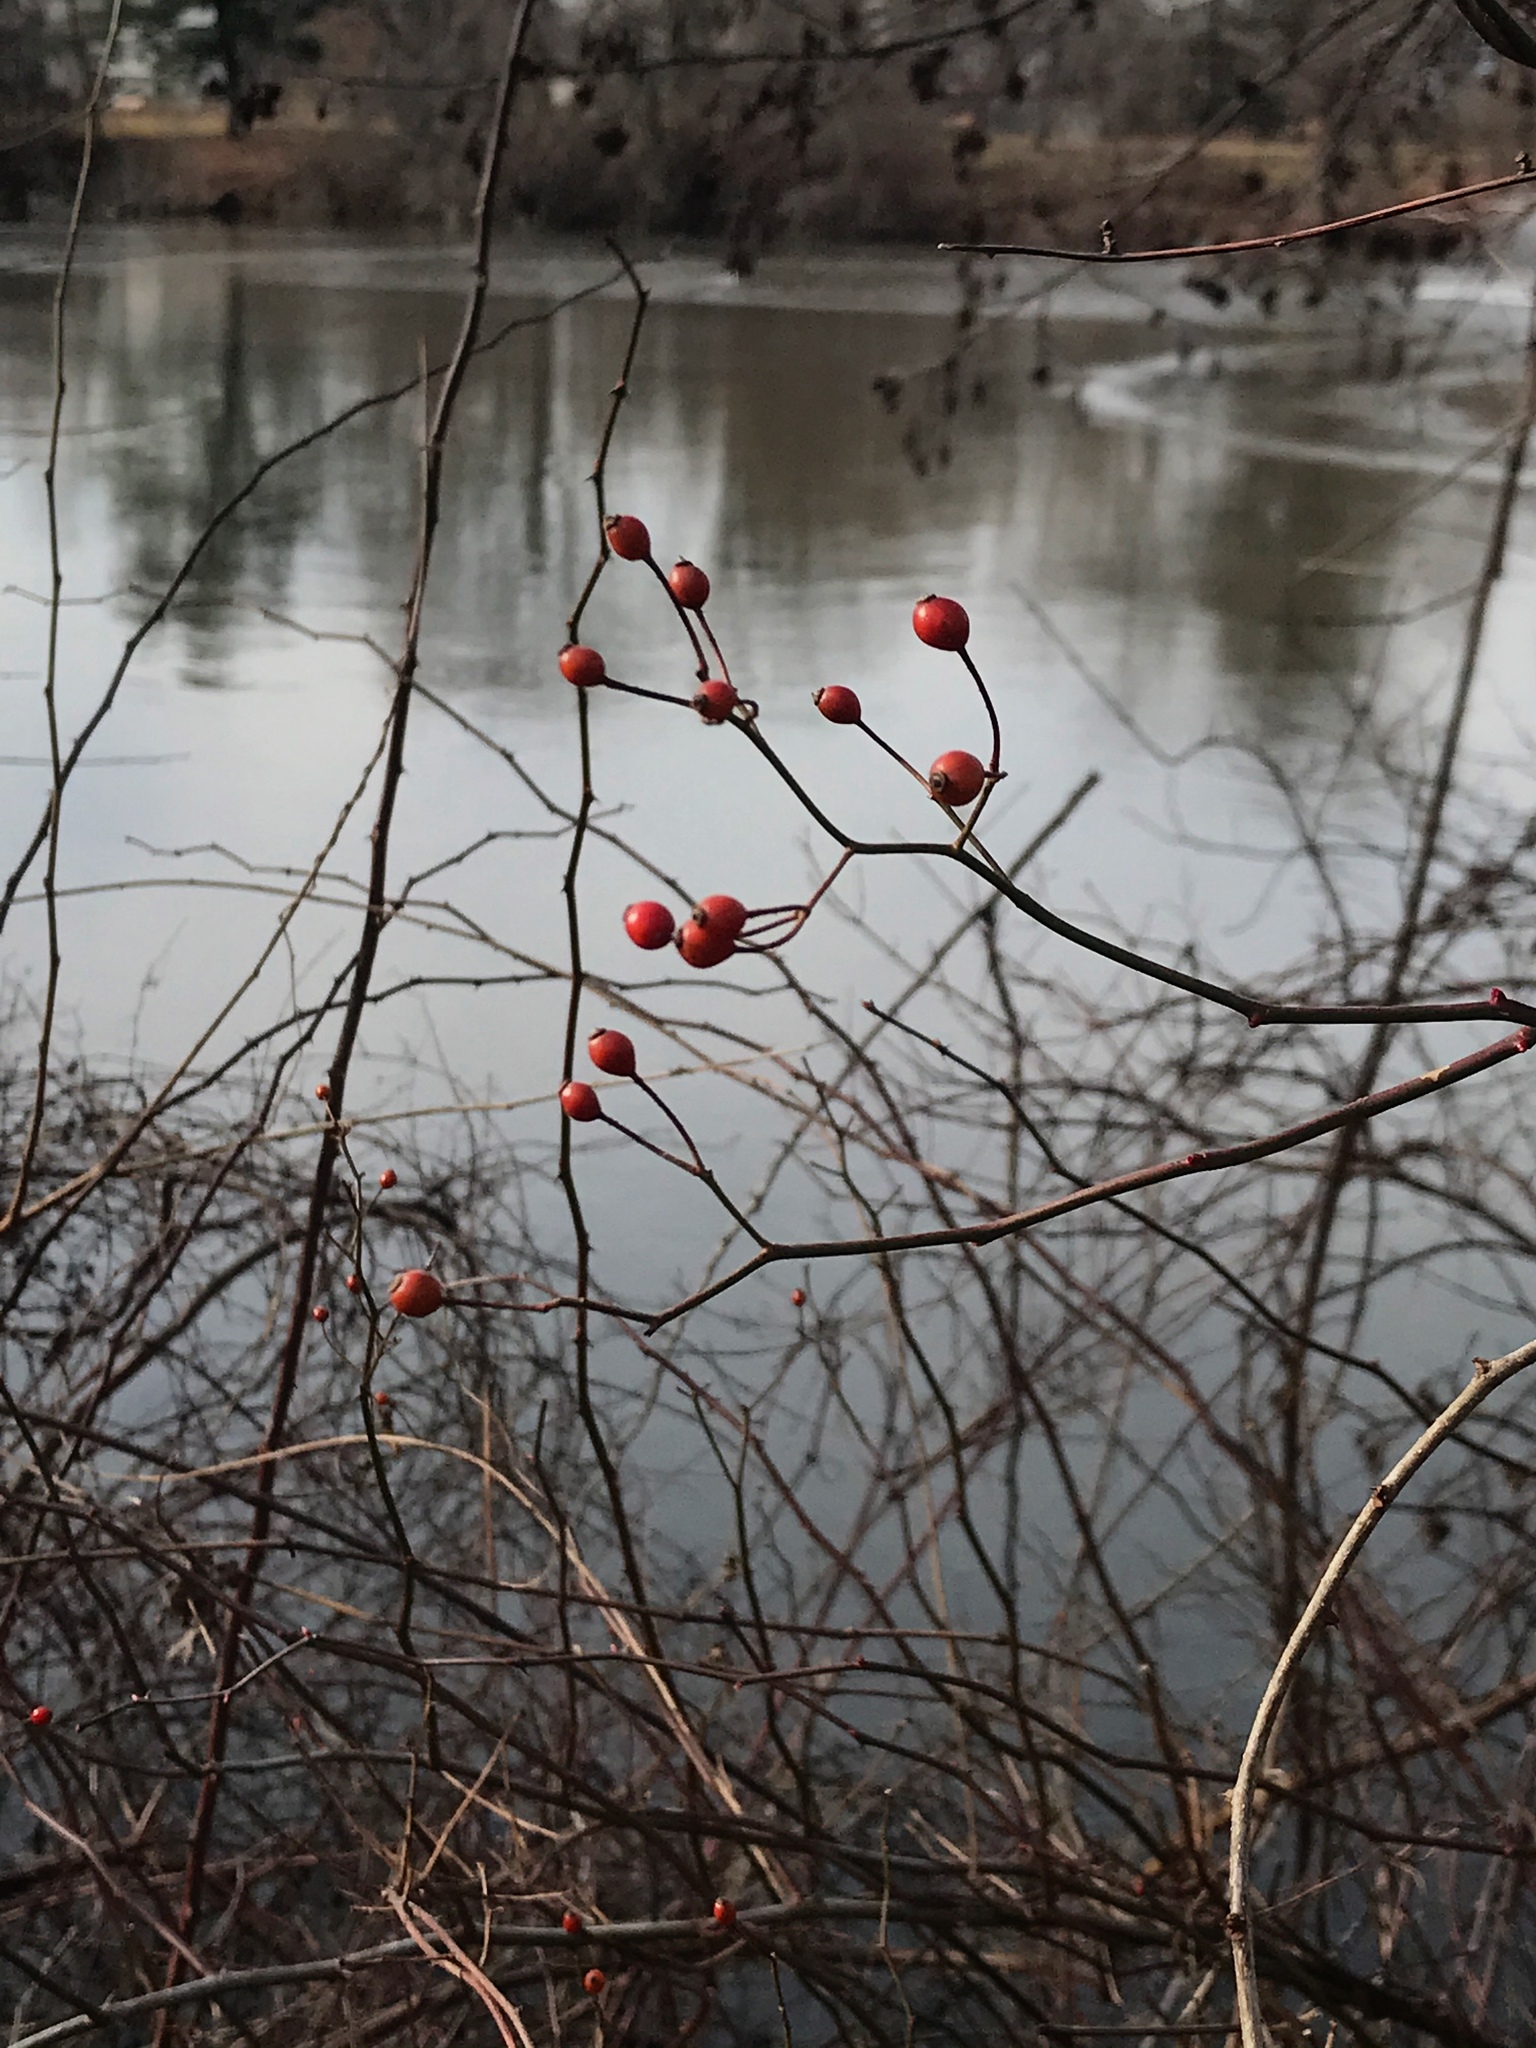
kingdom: Plantae
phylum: Tracheophyta
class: Magnoliopsida
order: Rosales
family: Rosaceae
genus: Rosa
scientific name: Rosa multiflora
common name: Multiflora rose
